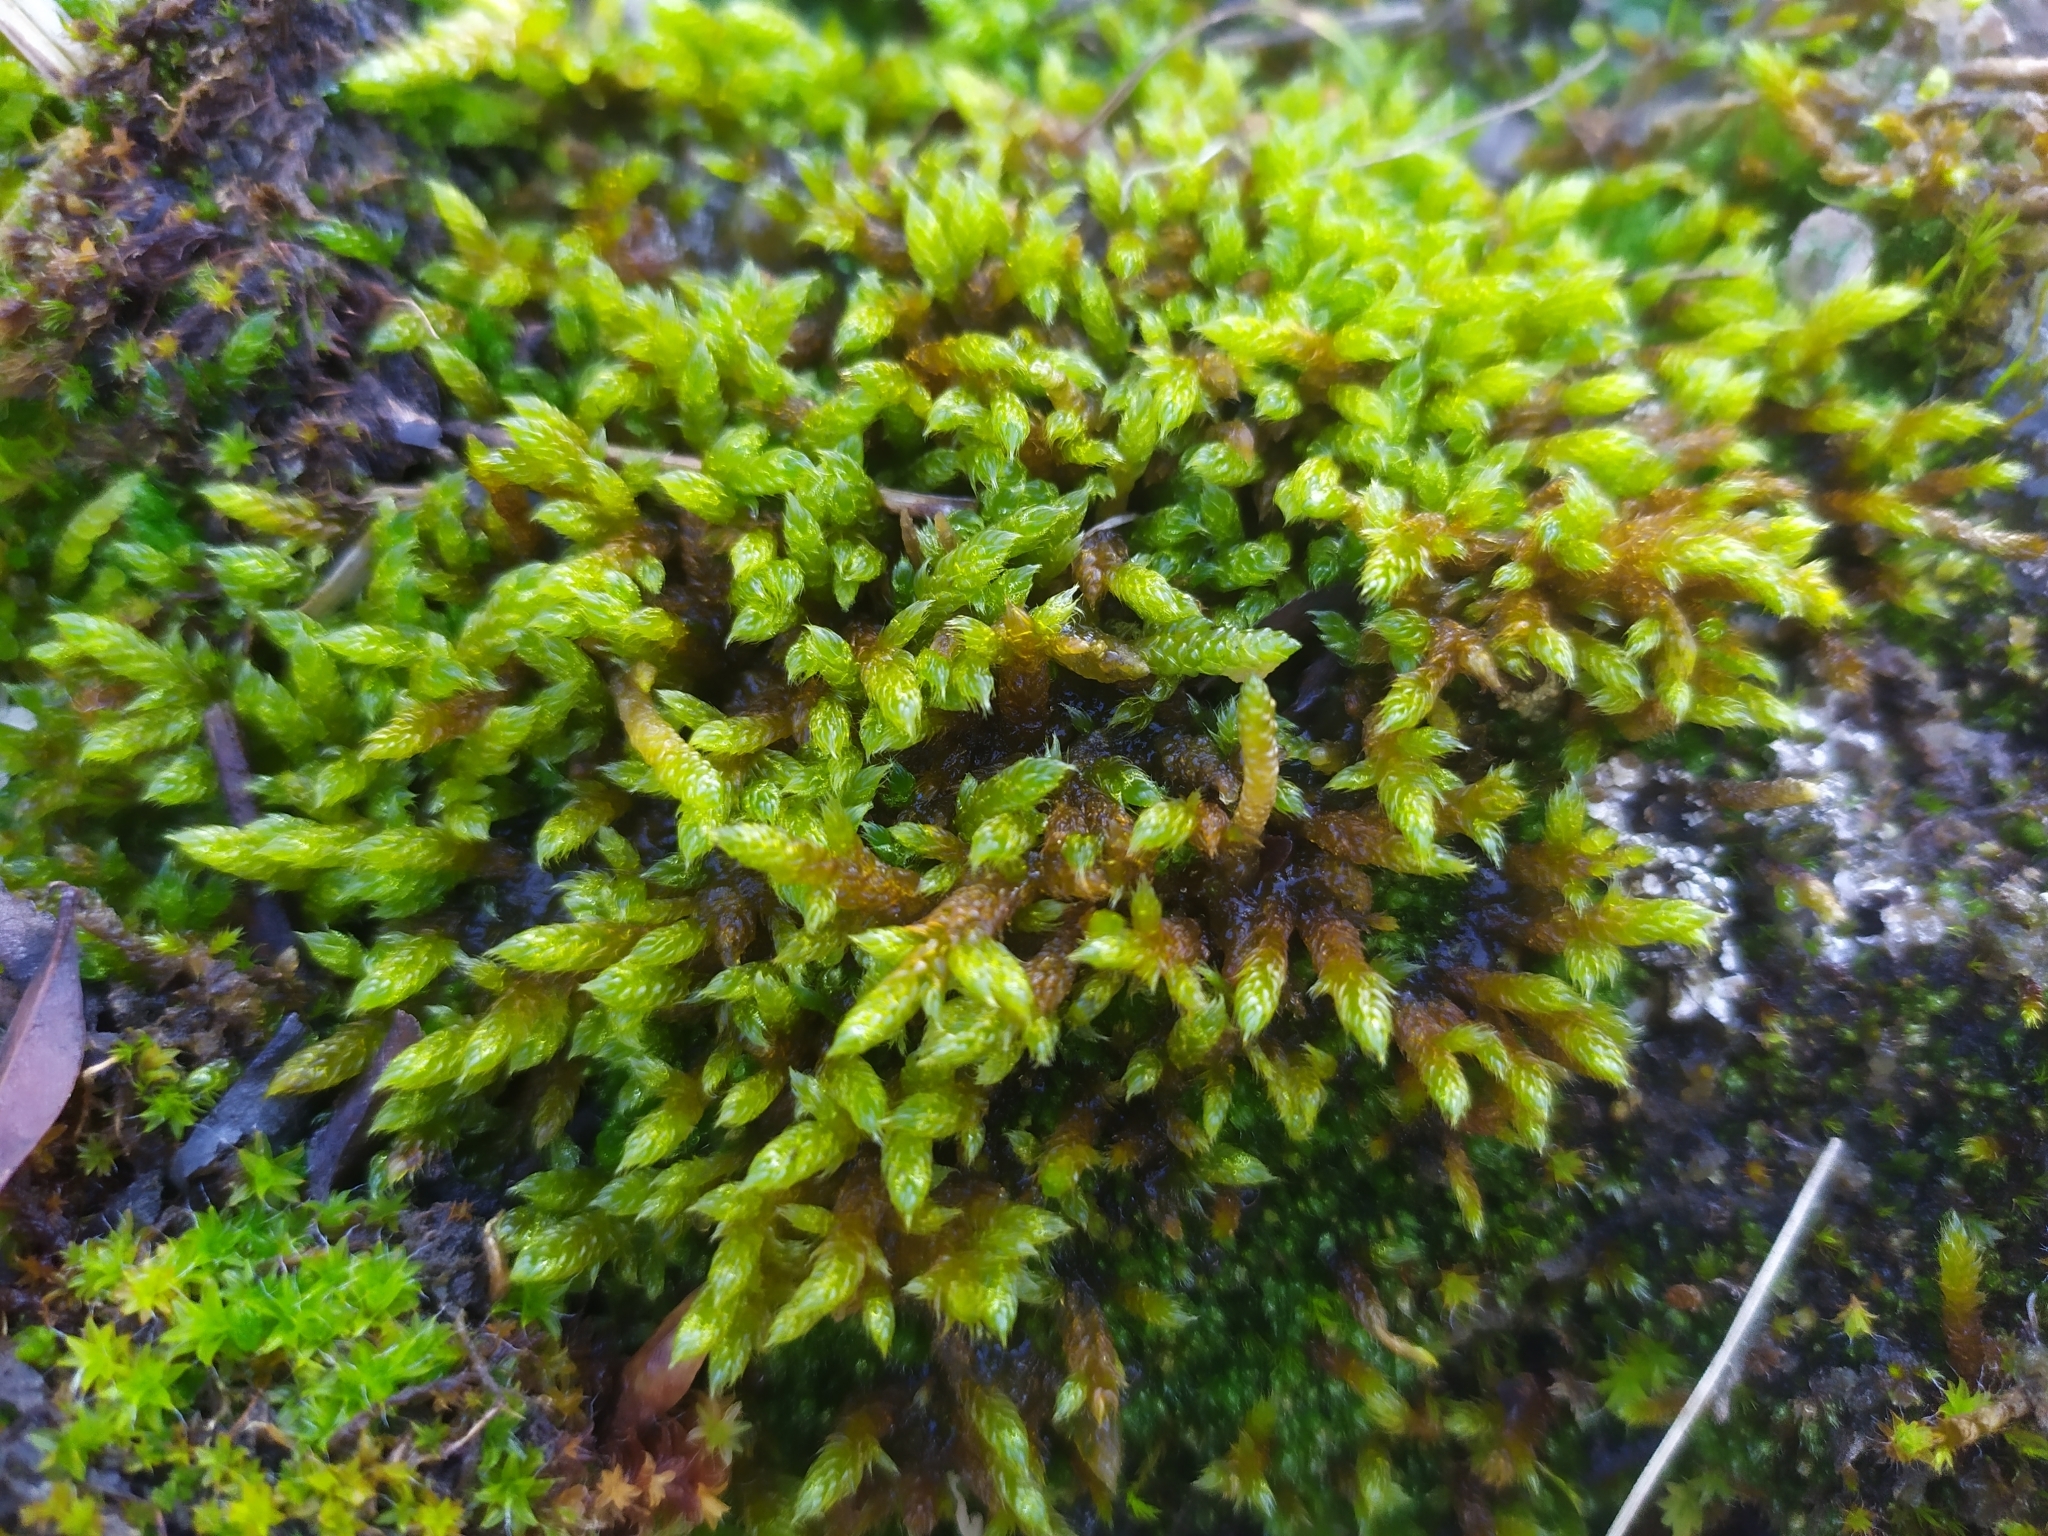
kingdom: Plantae
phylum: Bryophyta
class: Bryopsida
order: Hypnales
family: Hypnaceae
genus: Hypnum
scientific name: Hypnum cupressiforme
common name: Cypress-leaved plait-moss
